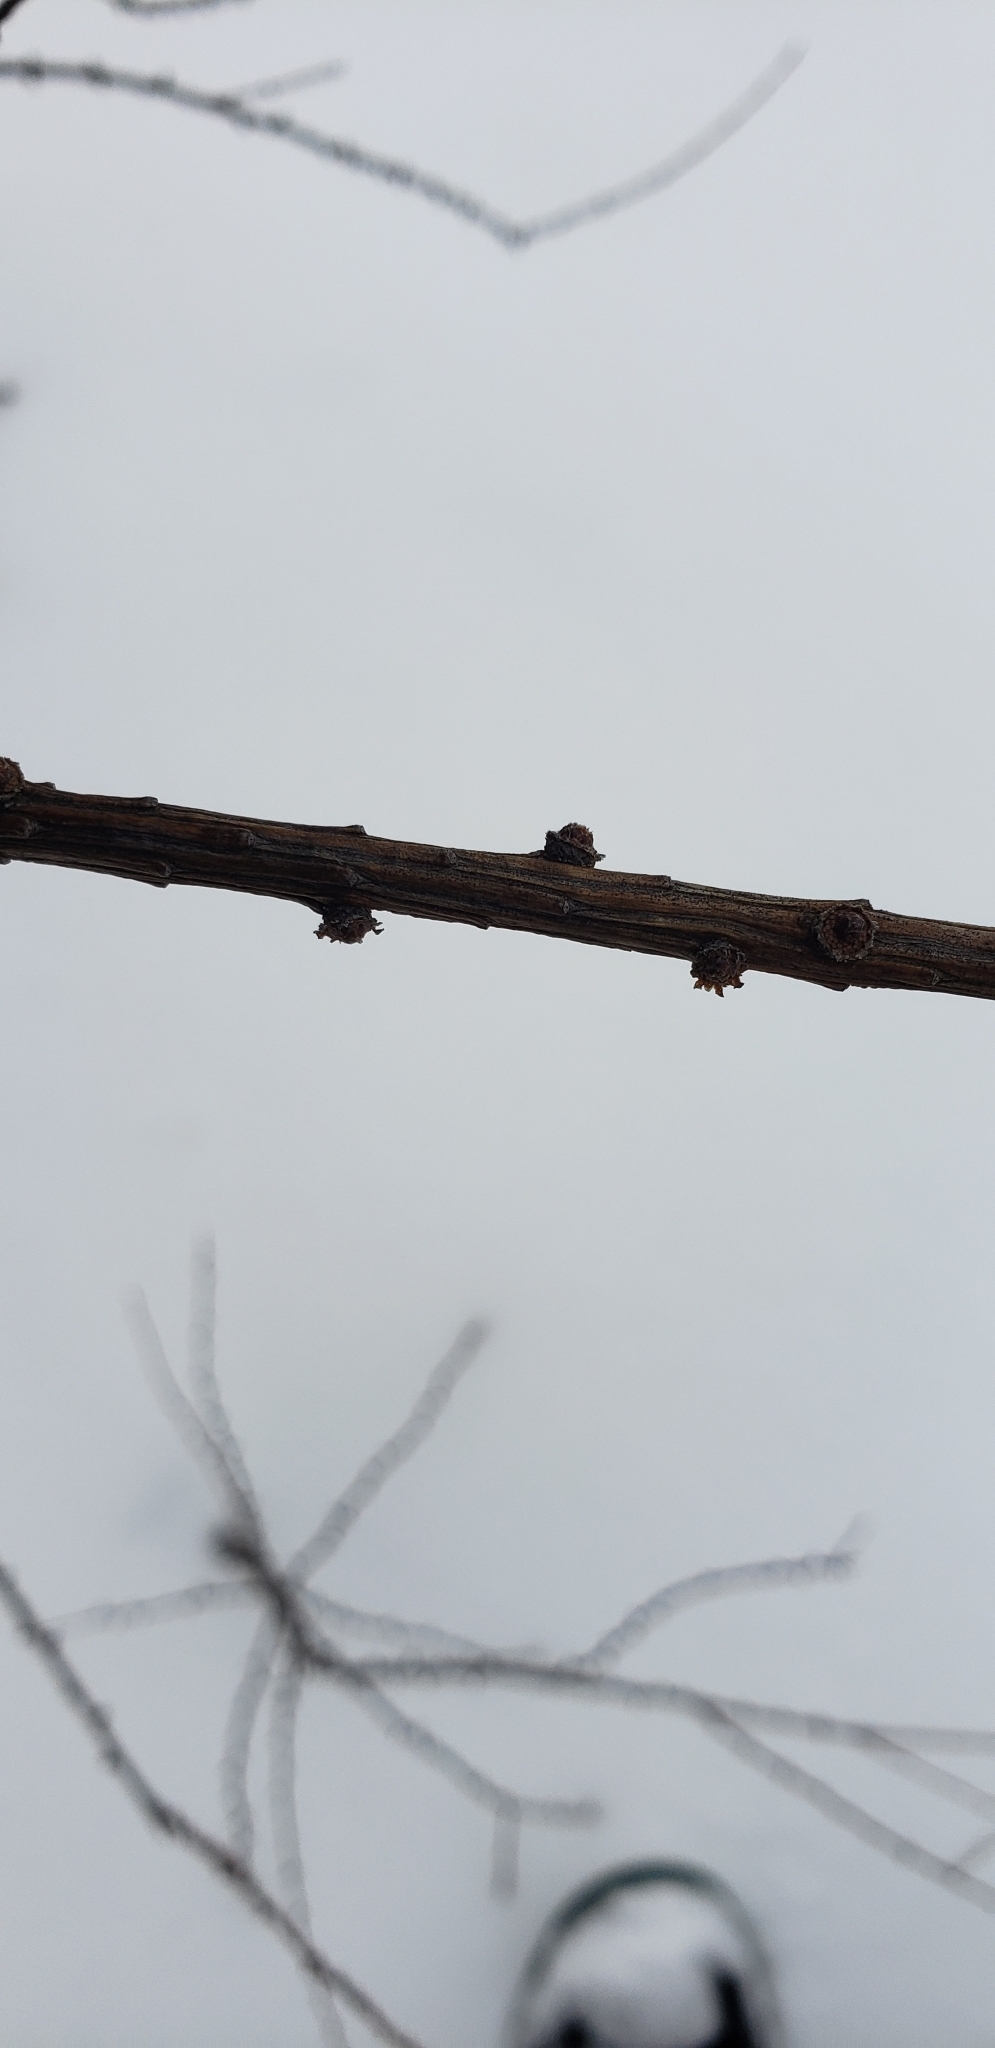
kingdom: Plantae
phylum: Tracheophyta
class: Pinopsida
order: Pinales
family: Pinaceae
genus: Larix
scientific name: Larix laricina
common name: American larch
